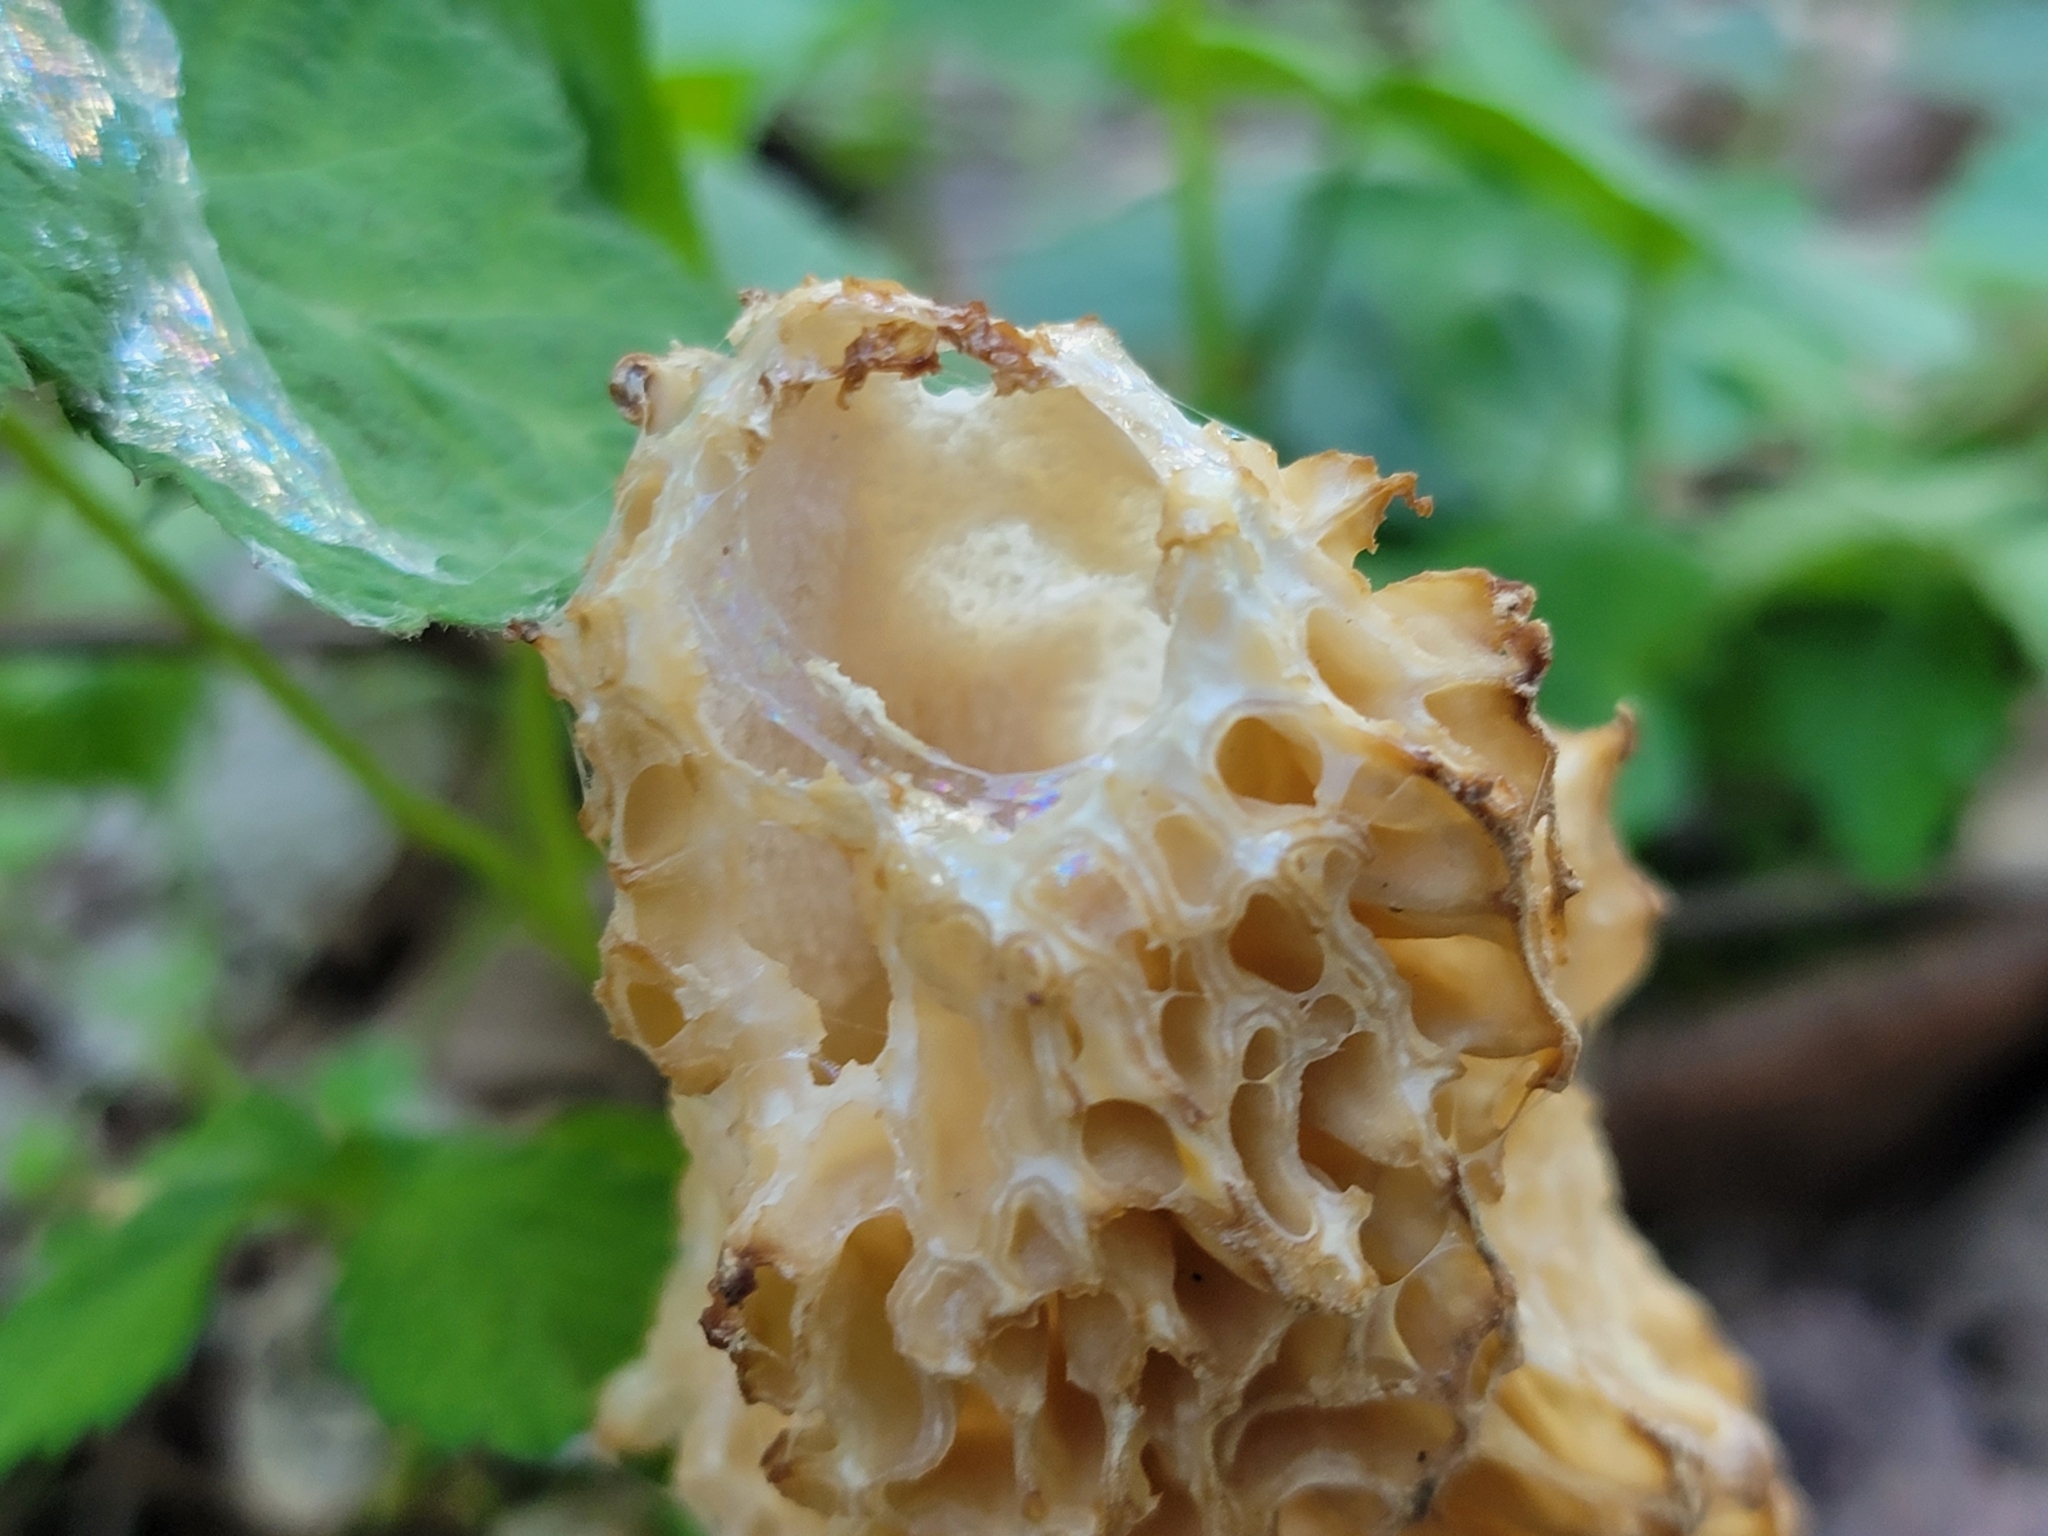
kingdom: Fungi
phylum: Ascomycota
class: Pezizomycetes
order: Pezizales
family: Morchellaceae
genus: Morchella
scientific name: Morchella americana
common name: White morel
